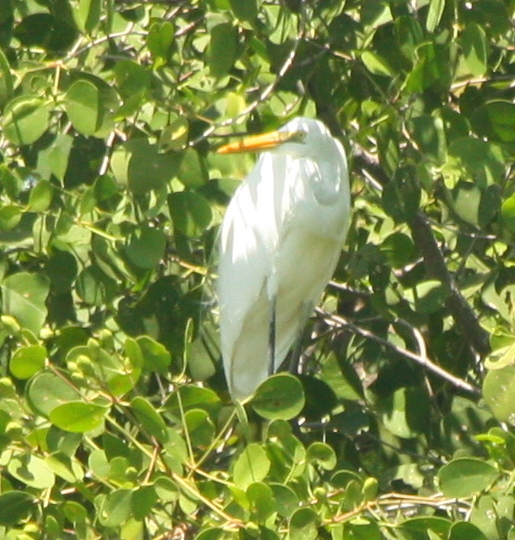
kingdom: Animalia
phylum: Chordata
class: Aves
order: Pelecaniformes
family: Ardeidae
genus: Ardea
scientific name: Ardea alba
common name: Great egret
